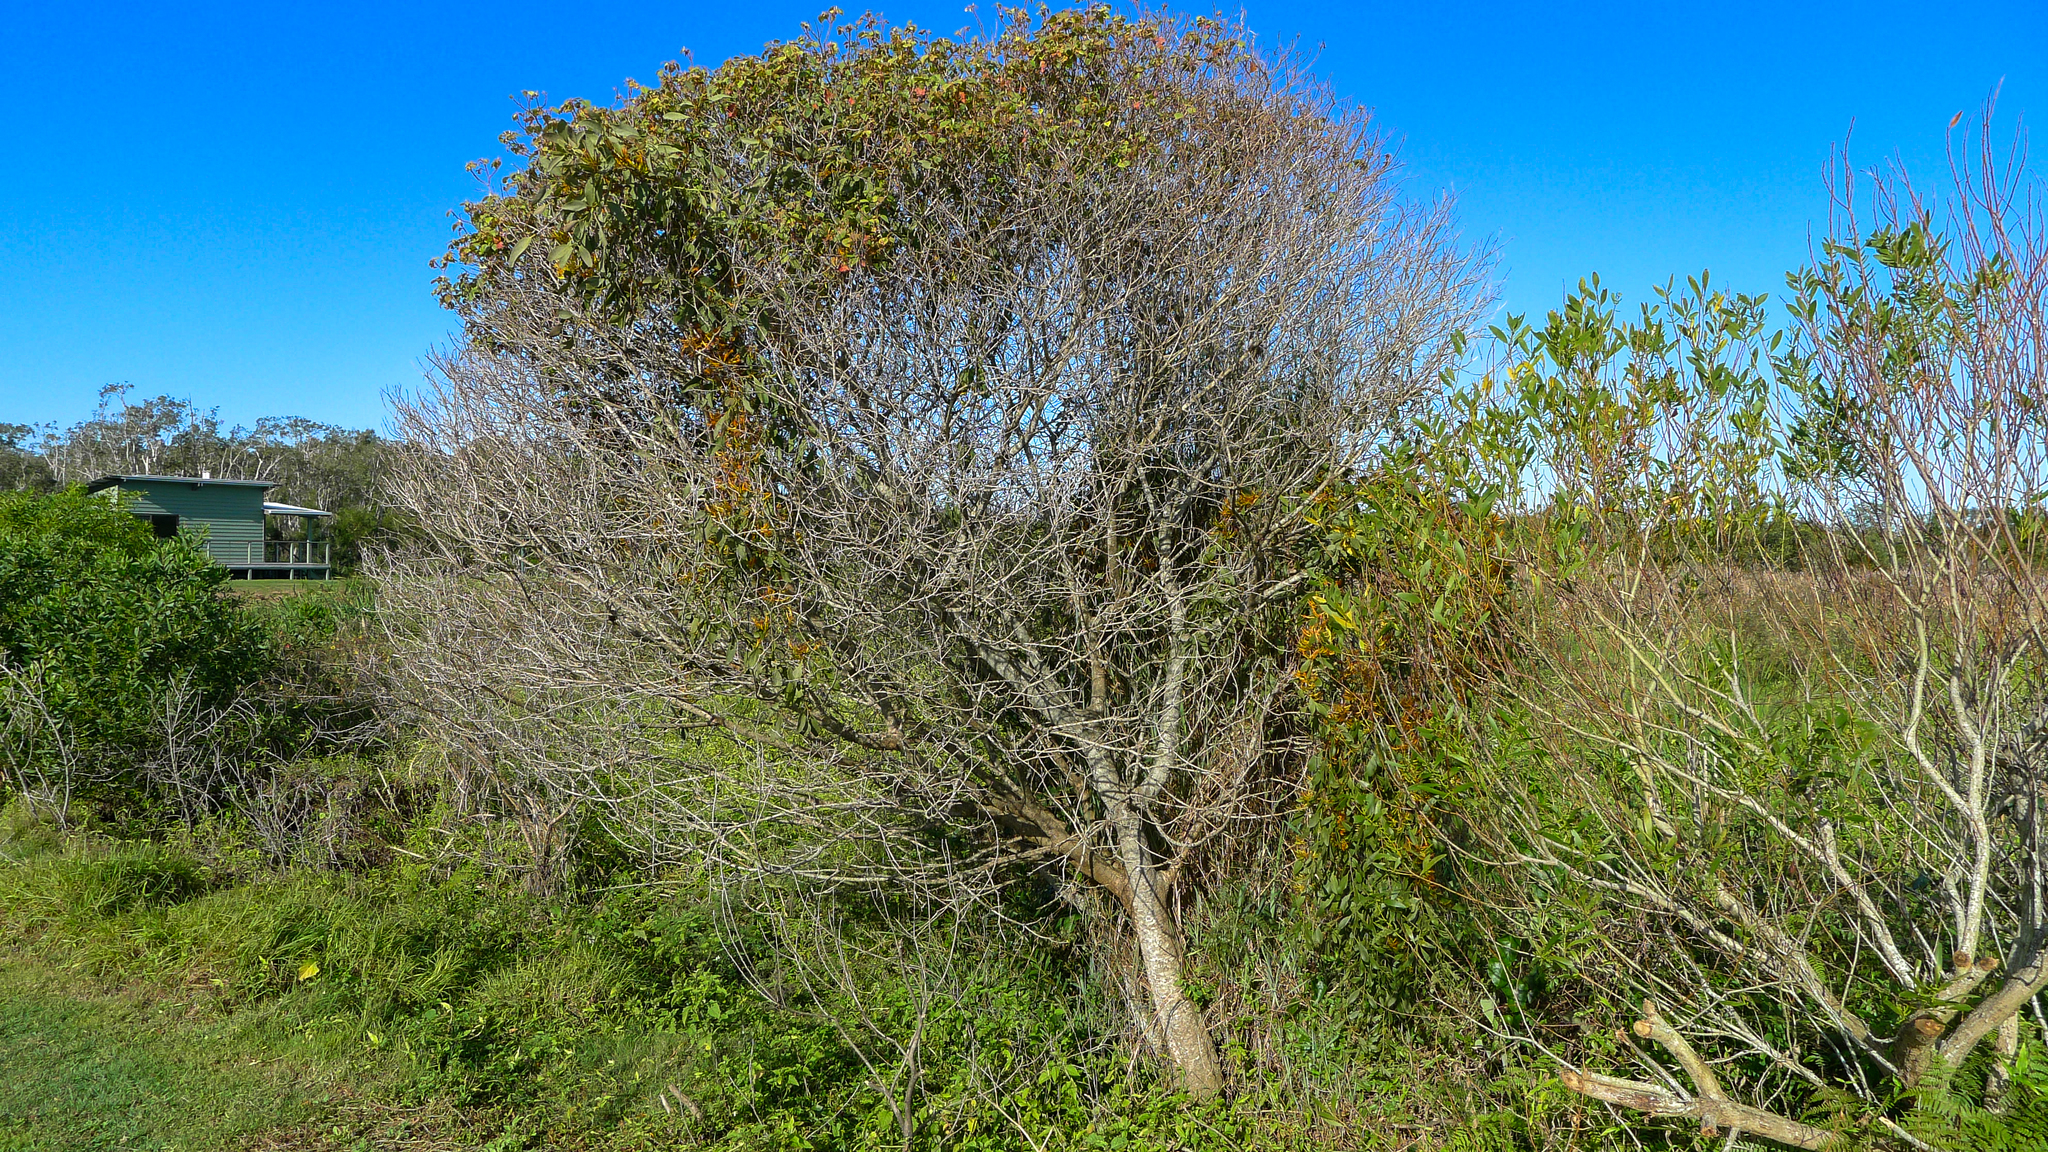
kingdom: Plantae
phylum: Tracheophyta
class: Magnoliopsida
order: Santalales
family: Loranthaceae
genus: Dendrophthoe
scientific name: Dendrophthoe vitellina
